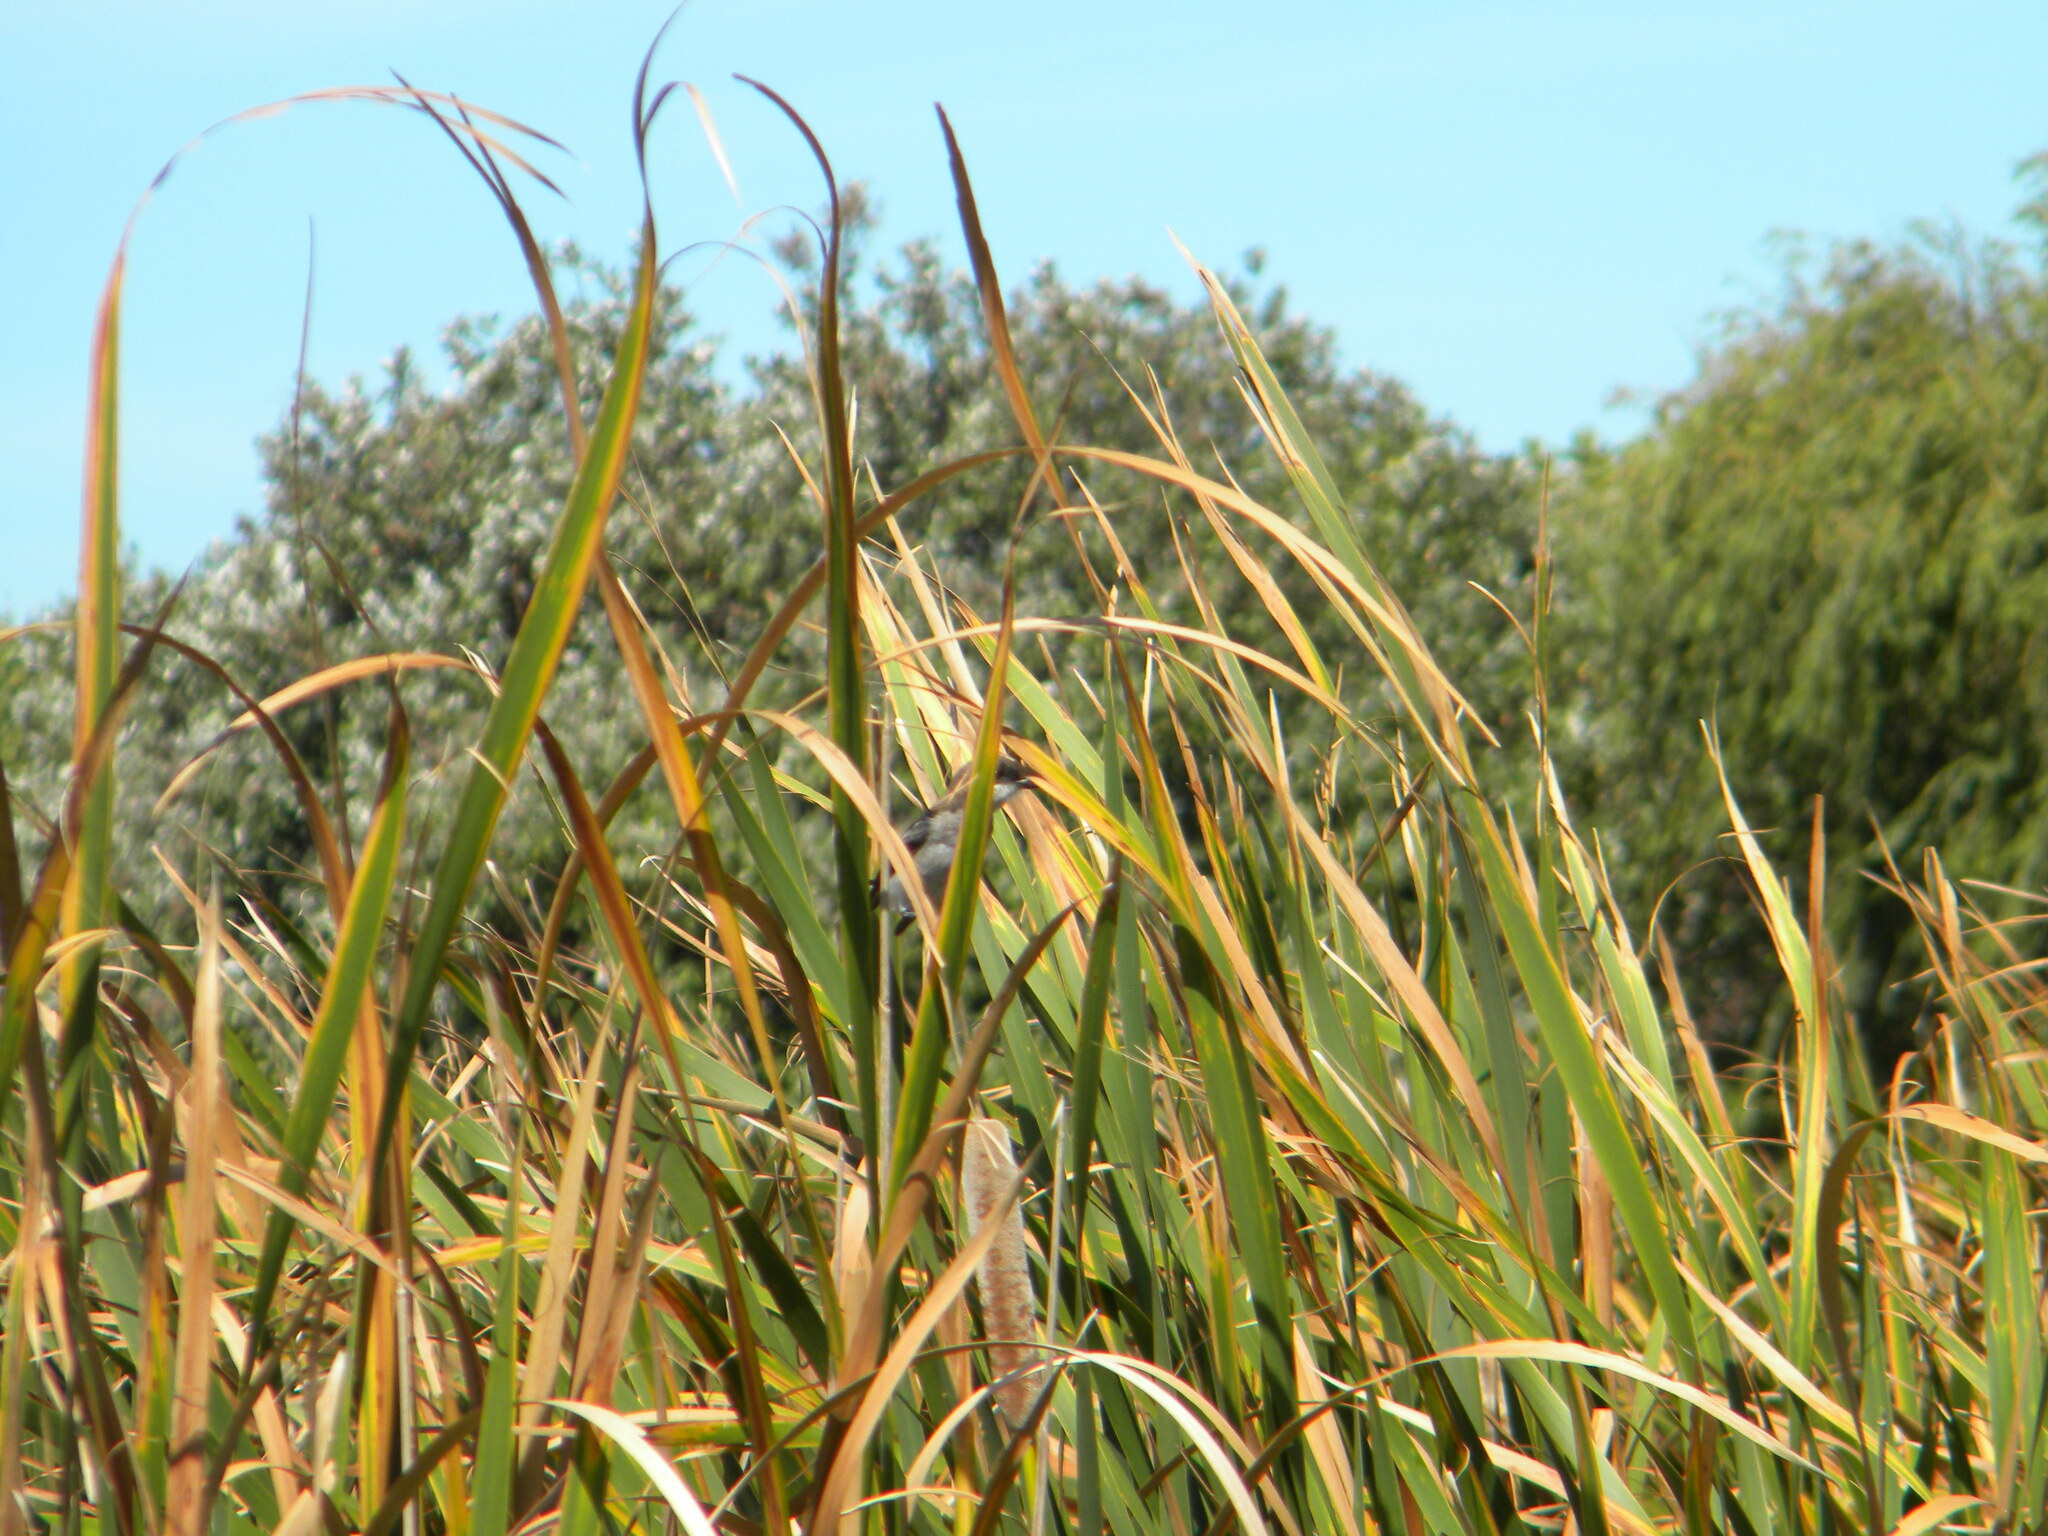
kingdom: Animalia
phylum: Chordata
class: Aves
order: Passeriformes
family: Laniidae
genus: Lanius
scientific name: Lanius collaris
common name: Southern fiscal
